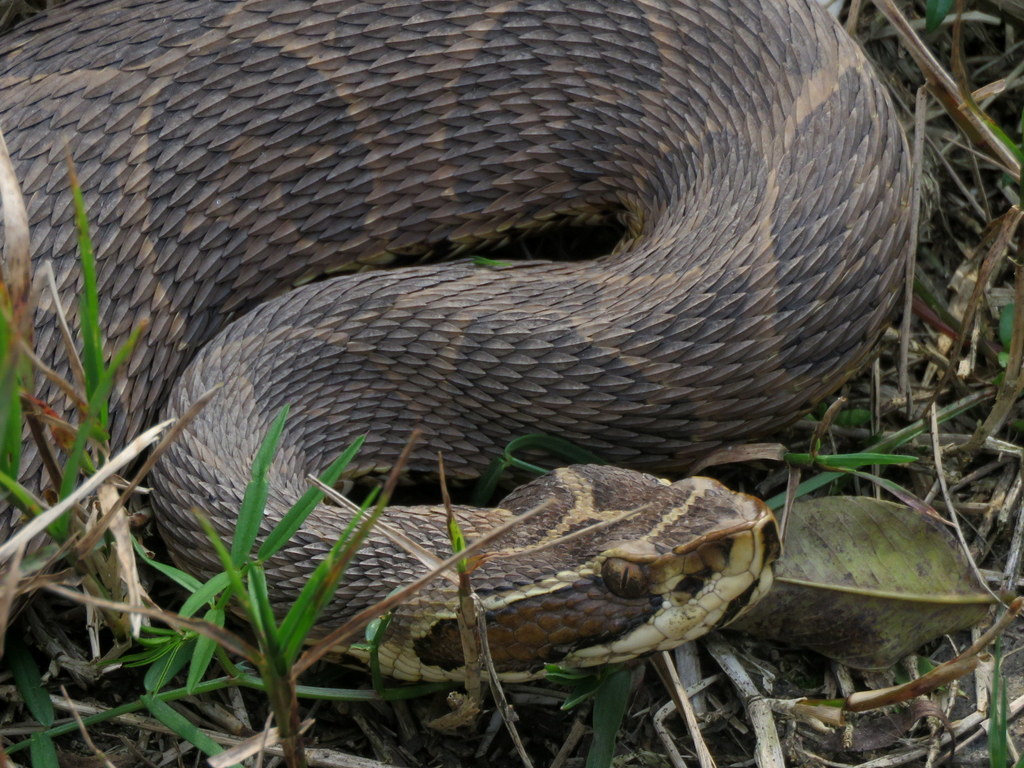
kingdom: Animalia
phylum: Chordata
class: Squamata
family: Viperidae
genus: Bothrops
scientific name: Bothrops alternatus
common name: Urutu
